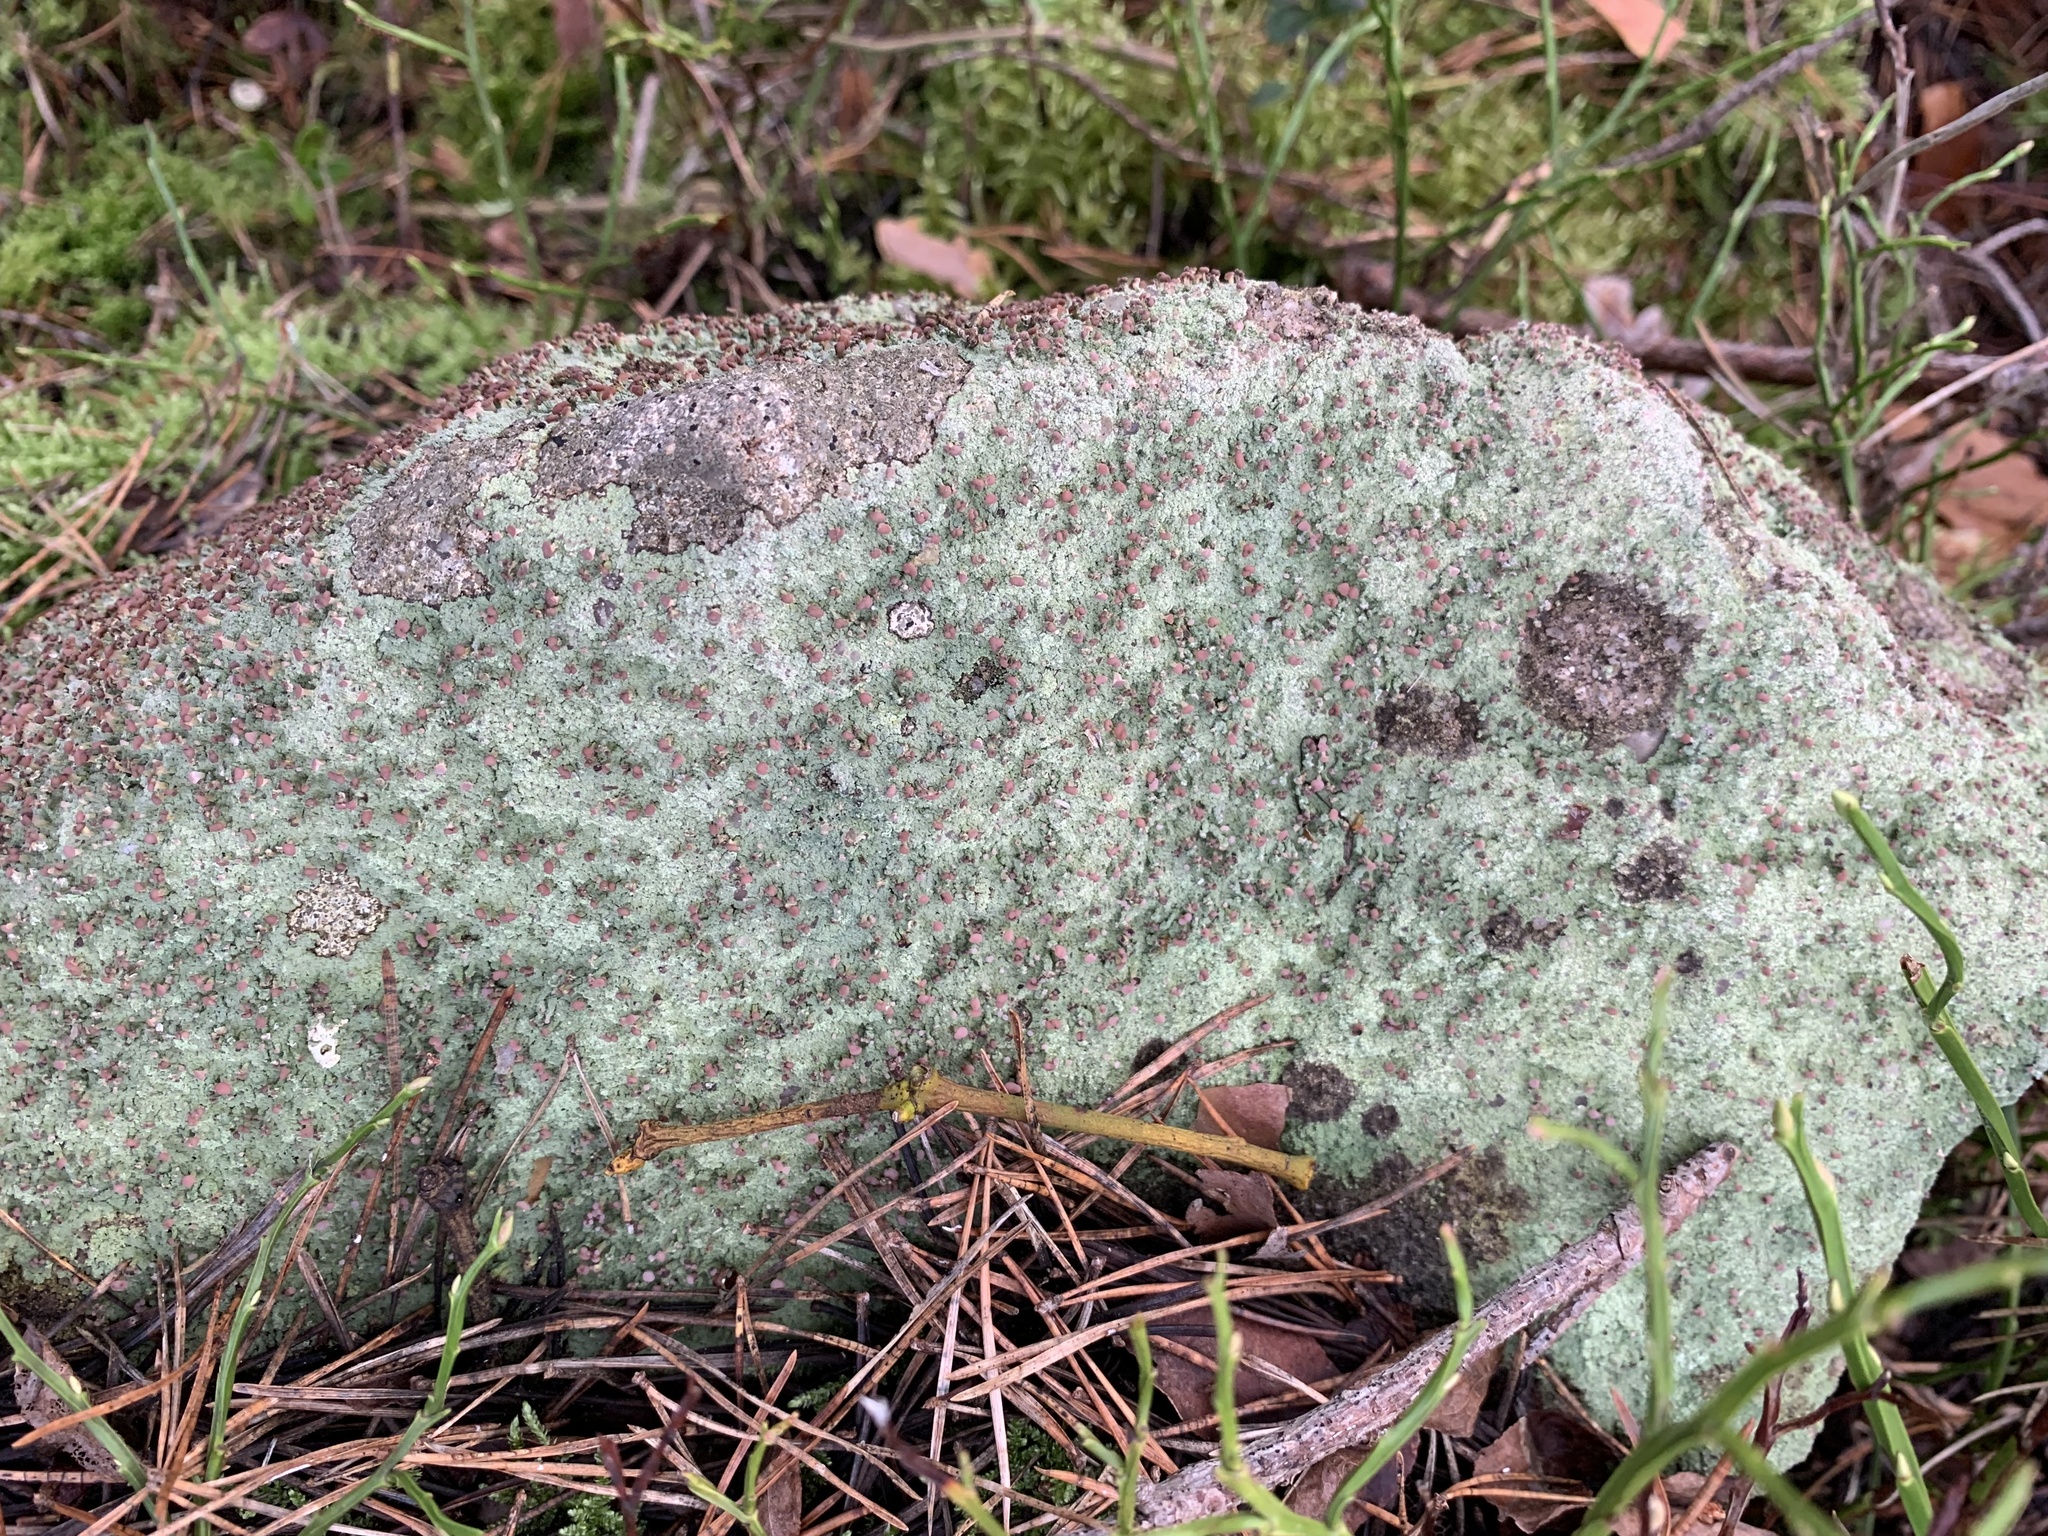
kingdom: Fungi
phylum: Ascomycota
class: Lecanoromycetes
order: Baeomycetales
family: Baeomycetaceae
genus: Baeomyces
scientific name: Baeomyces rufus
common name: Brown beret lichen
